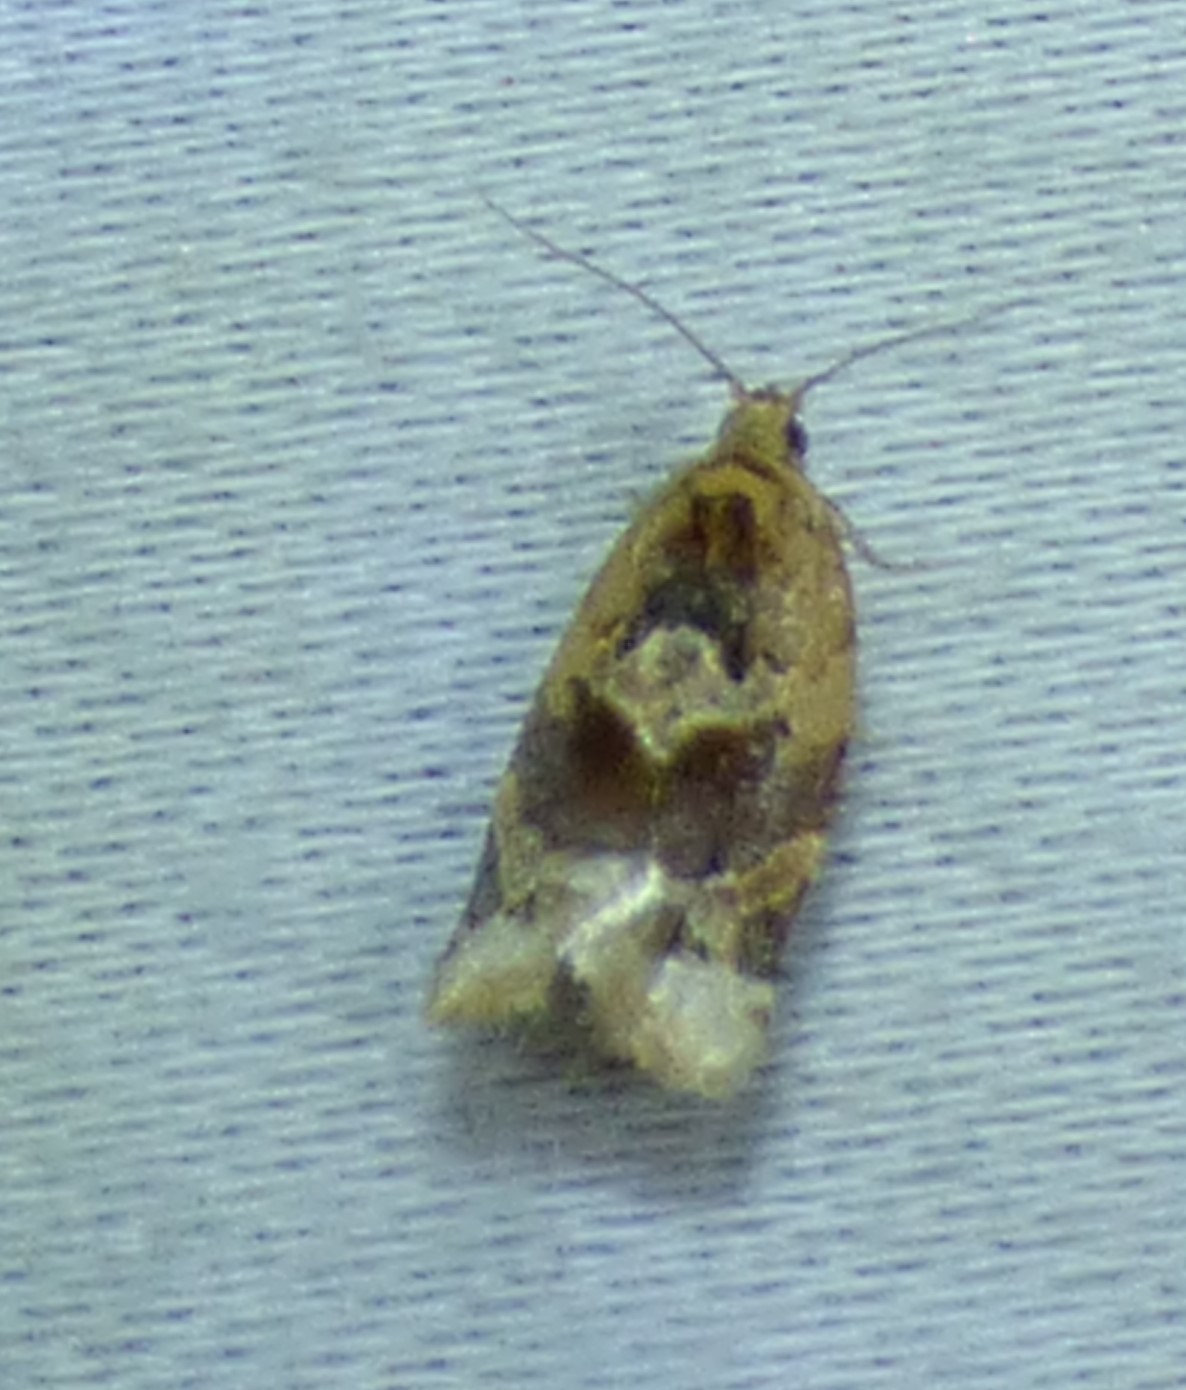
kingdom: Animalia
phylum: Arthropoda
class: Insecta
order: Lepidoptera
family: Tortricidae
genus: Argyrotaenia
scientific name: Argyrotaenia velutinana
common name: Red-banded leafroller moth
